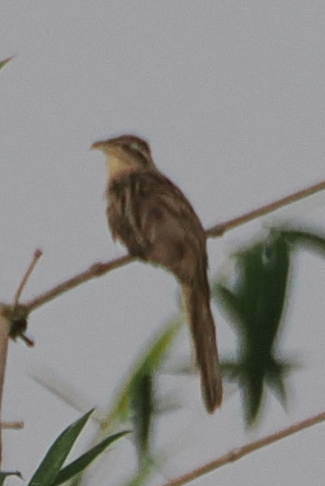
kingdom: Animalia
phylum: Chordata
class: Aves
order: Cuculiformes
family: Cuculidae
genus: Tapera
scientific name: Tapera naevia
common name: Striped cuckoo
